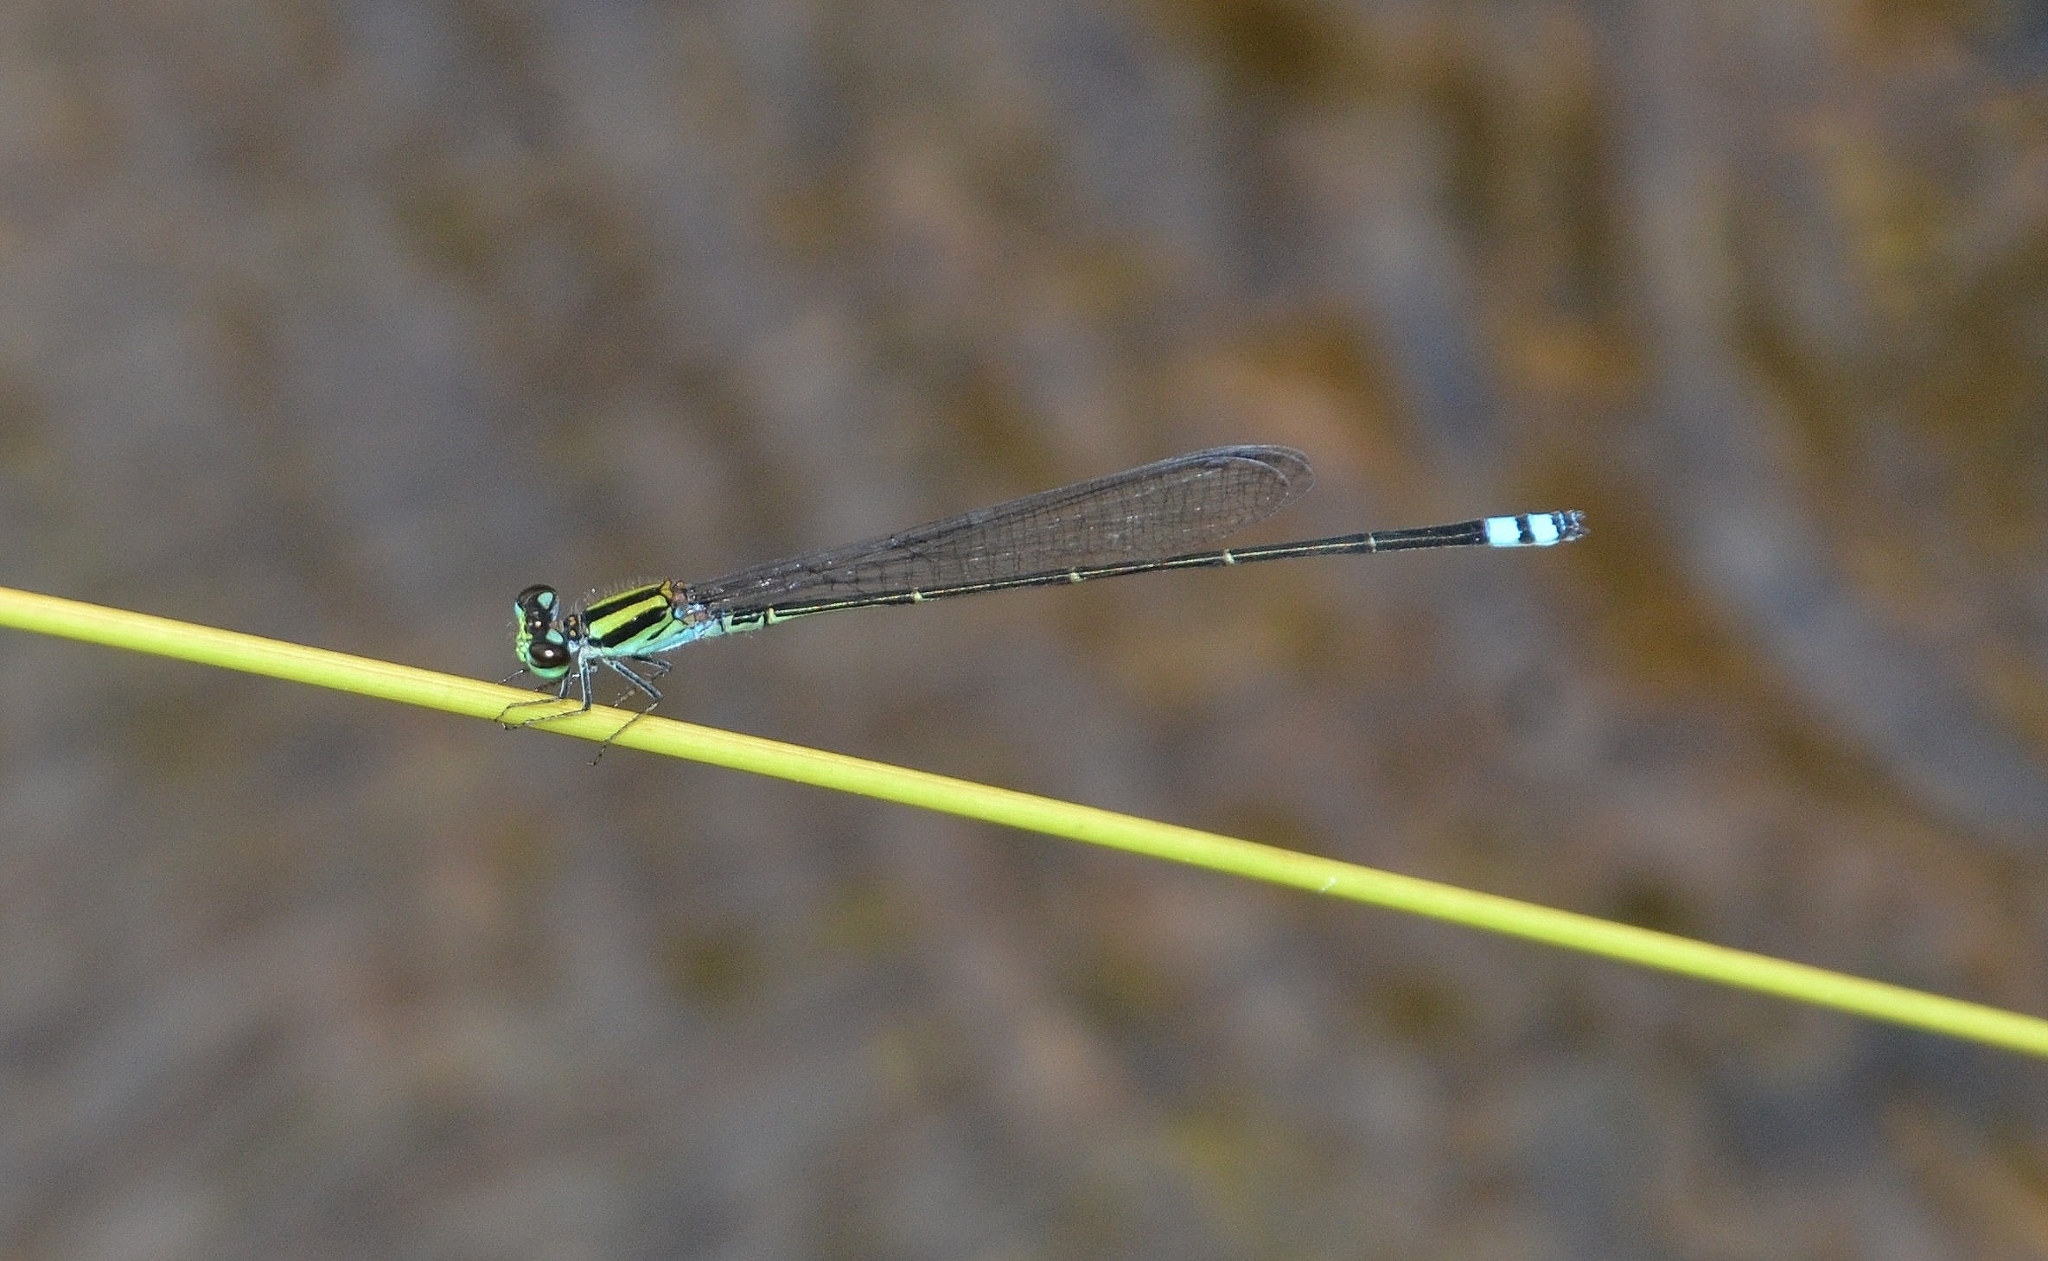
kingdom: Animalia
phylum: Arthropoda
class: Insecta
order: Odonata
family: Coenagrionidae
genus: Pseudagrion
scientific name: Pseudagrion indicum
